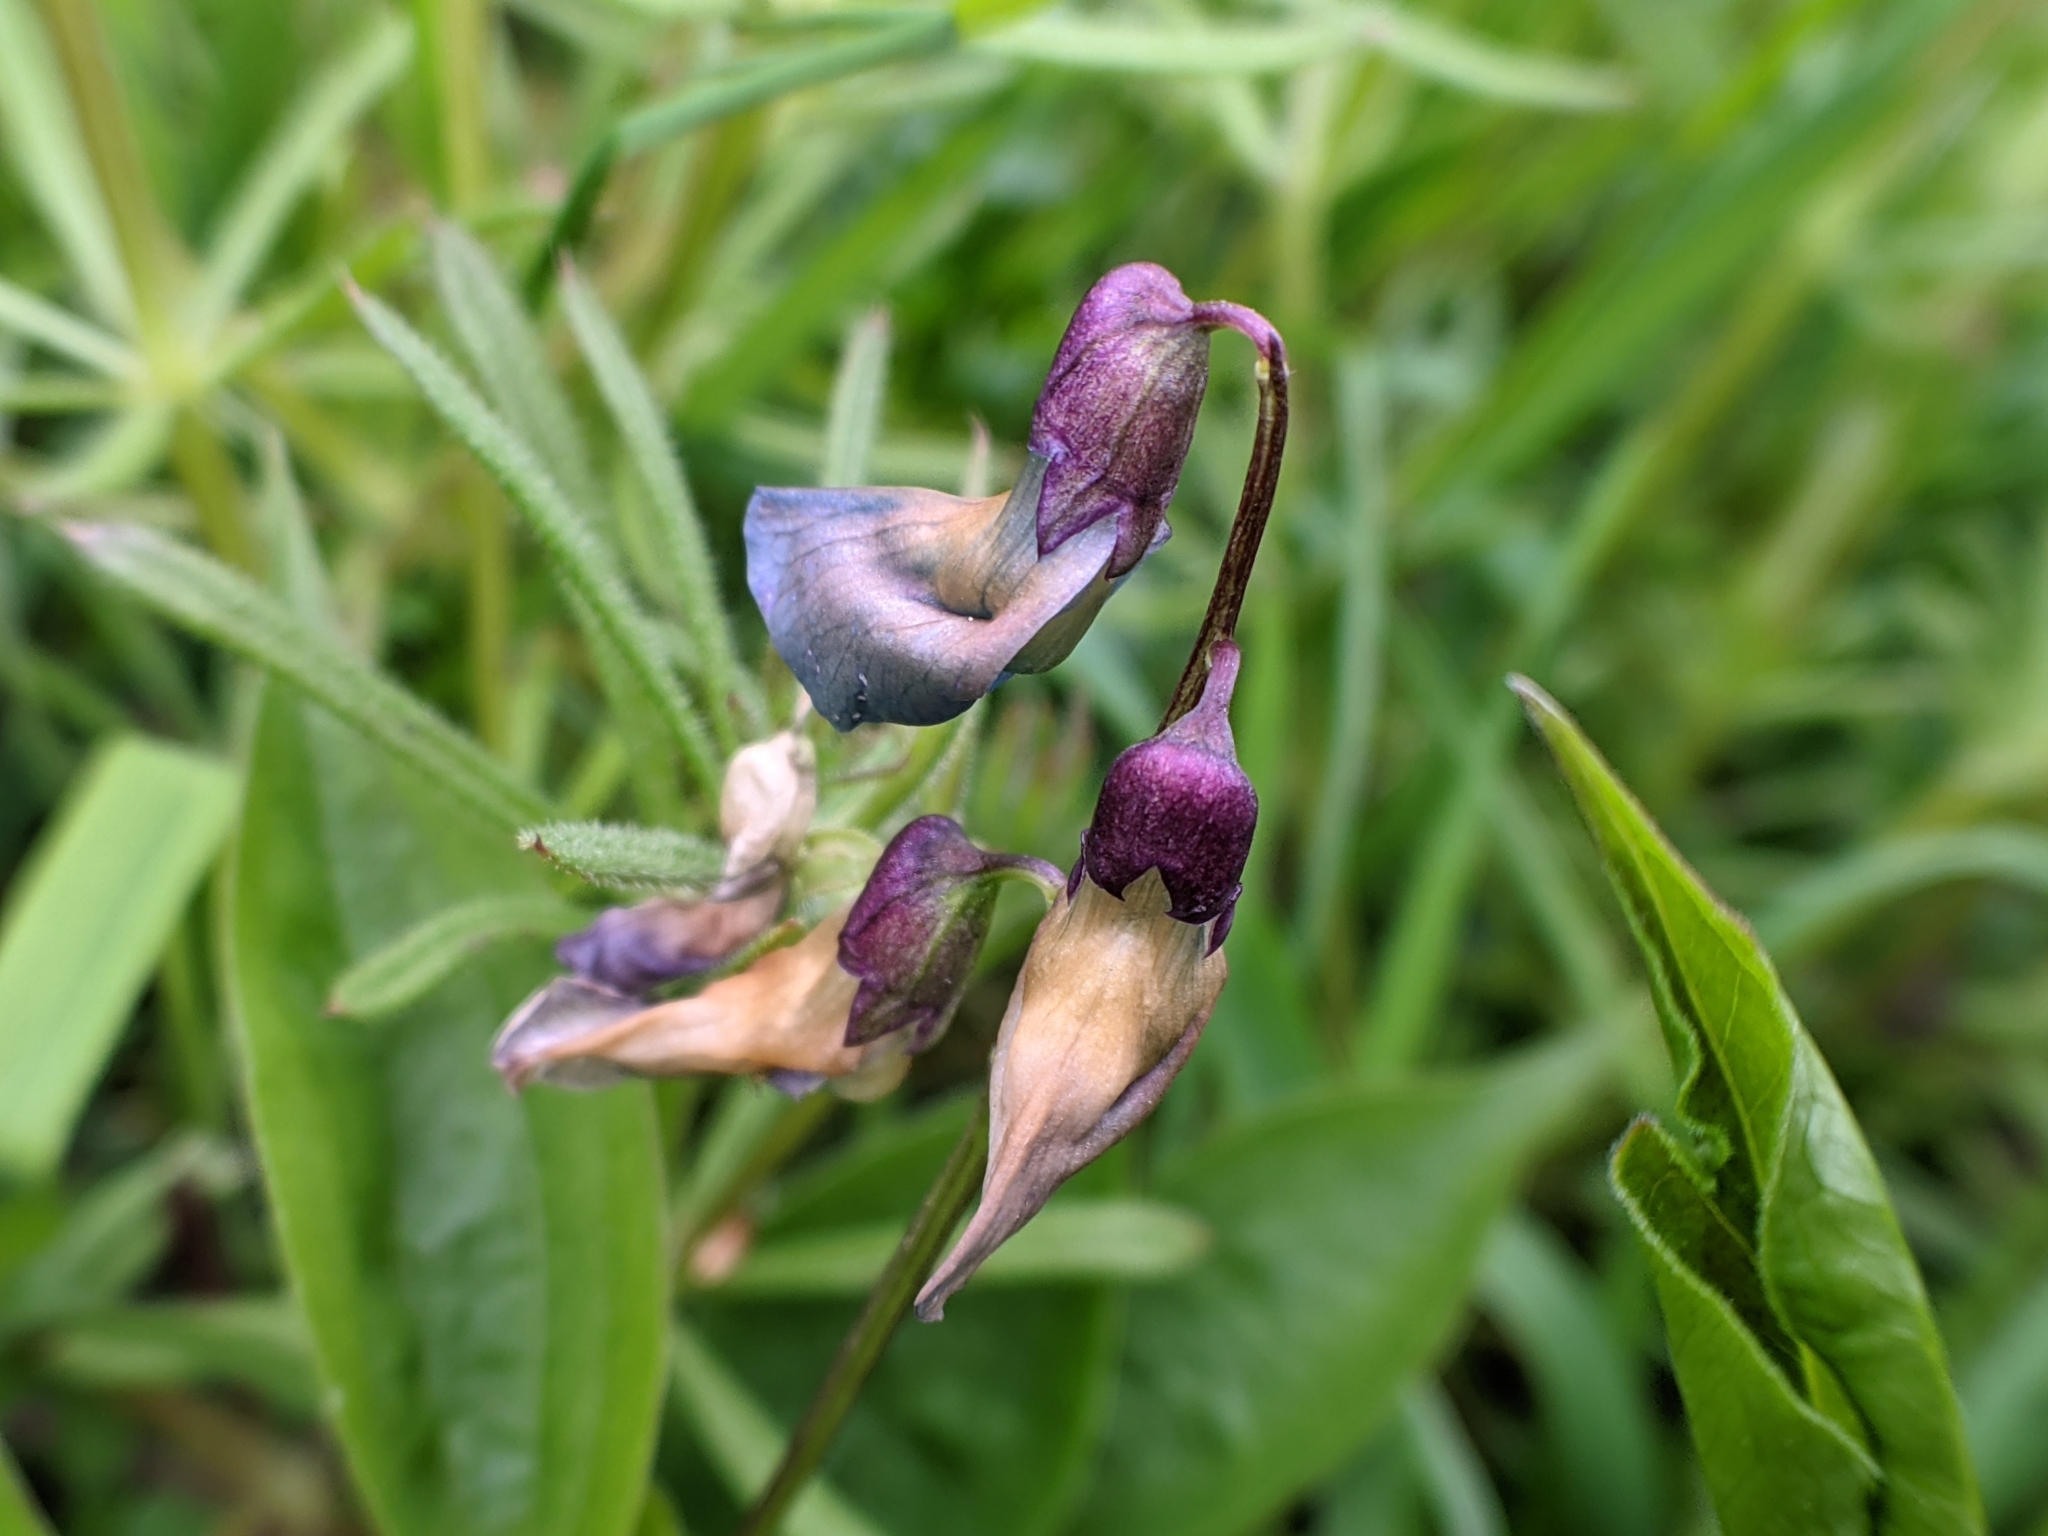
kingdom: Plantae
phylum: Tracheophyta
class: Magnoliopsida
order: Fabales
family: Fabaceae
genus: Lathyrus
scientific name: Lathyrus vernus
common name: Spring pea
